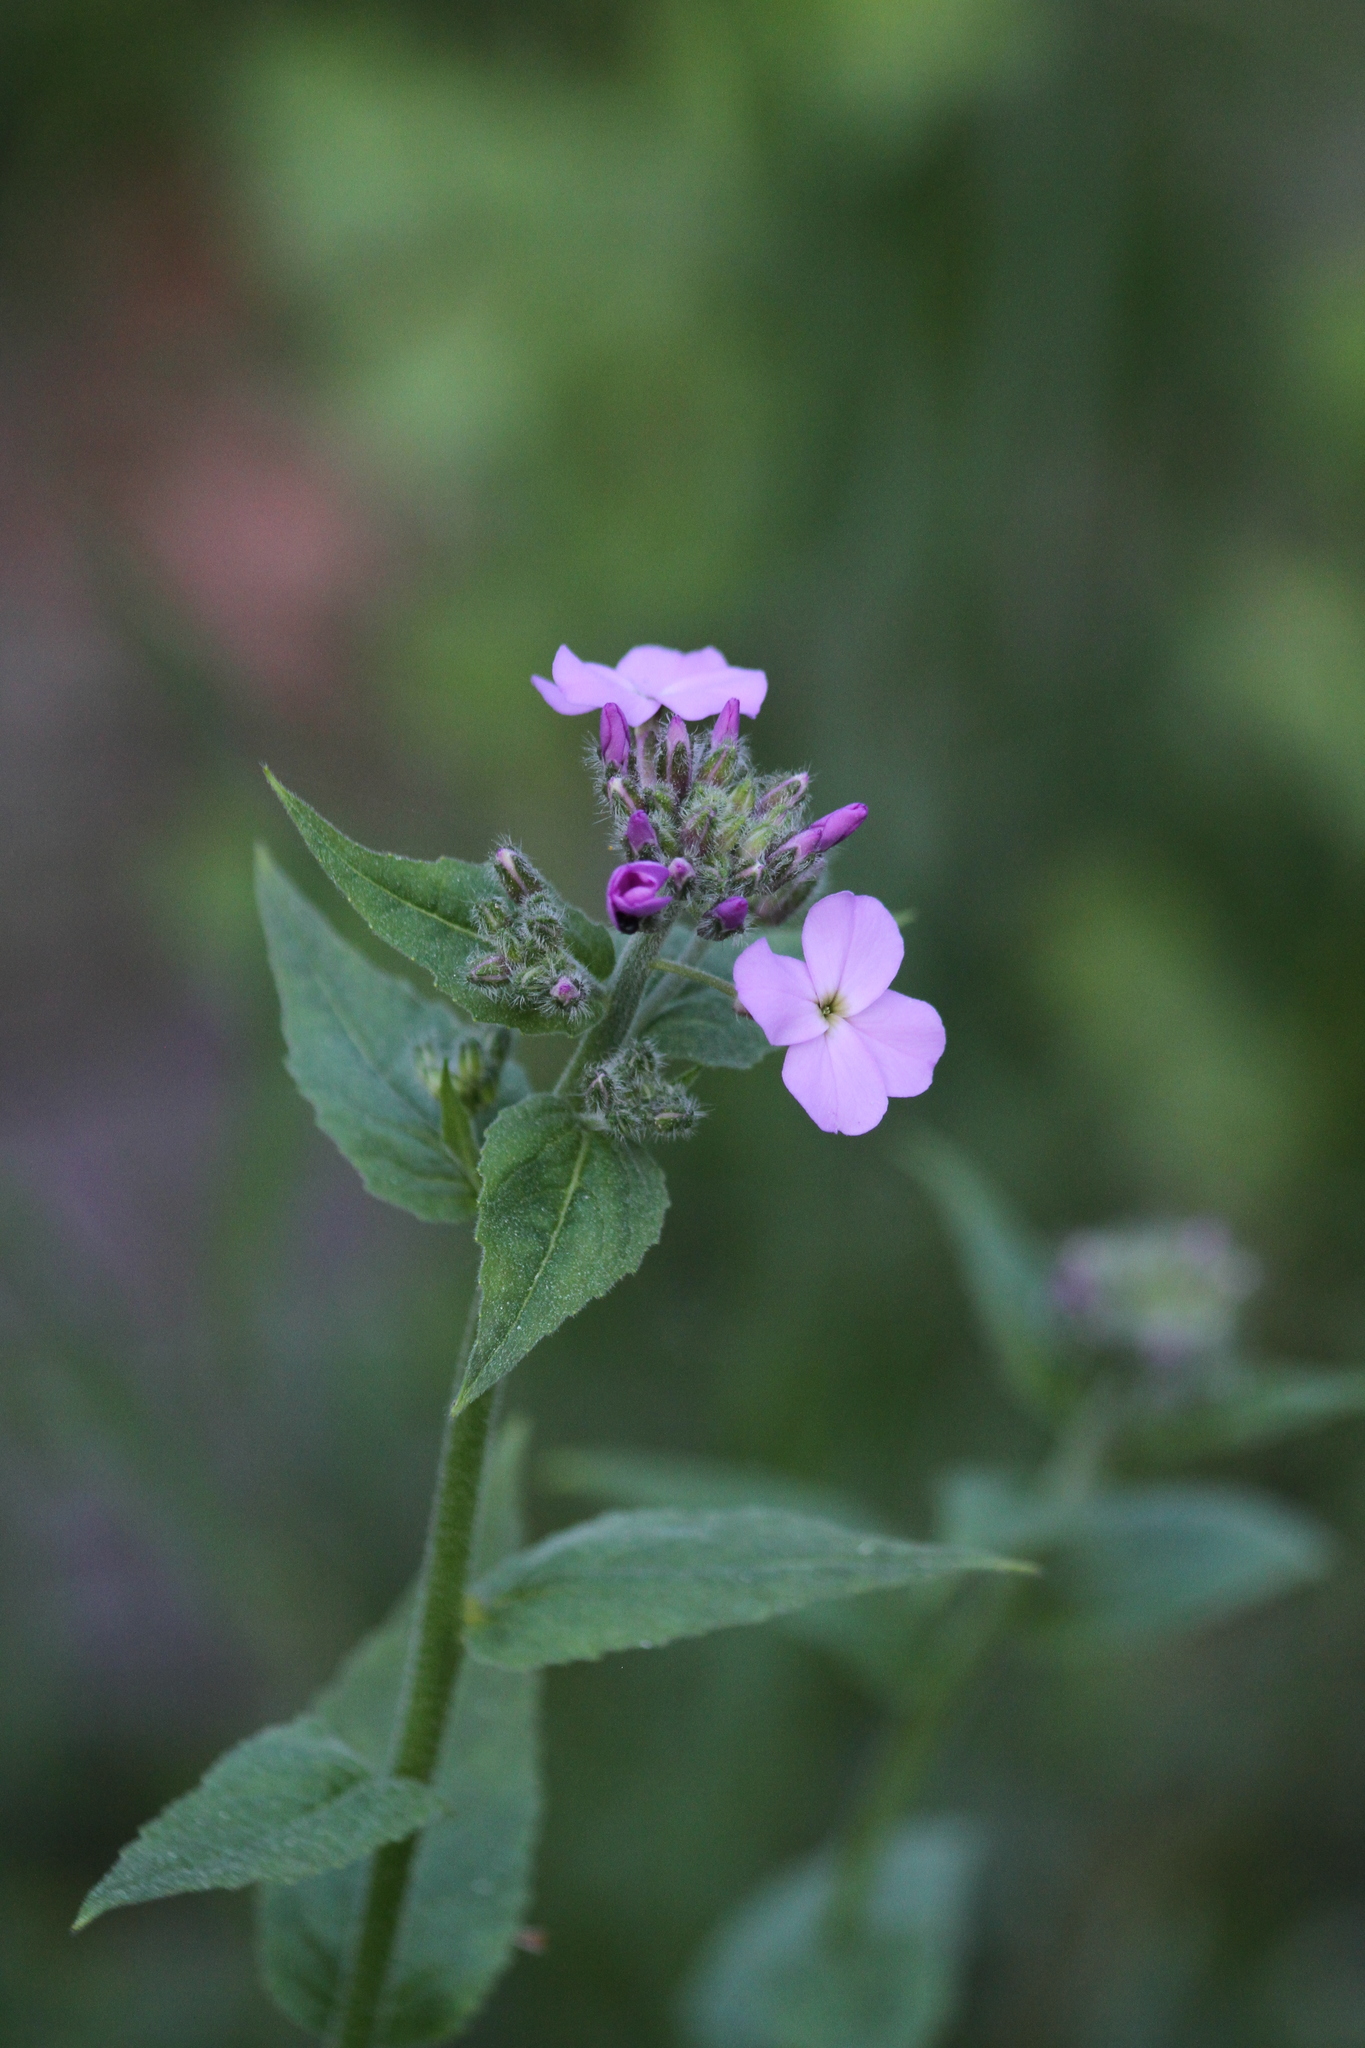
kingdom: Plantae
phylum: Tracheophyta
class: Magnoliopsida
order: Brassicales
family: Brassicaceae
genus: Hesperis
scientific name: Hesperis matronalis
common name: Dame's-violet
